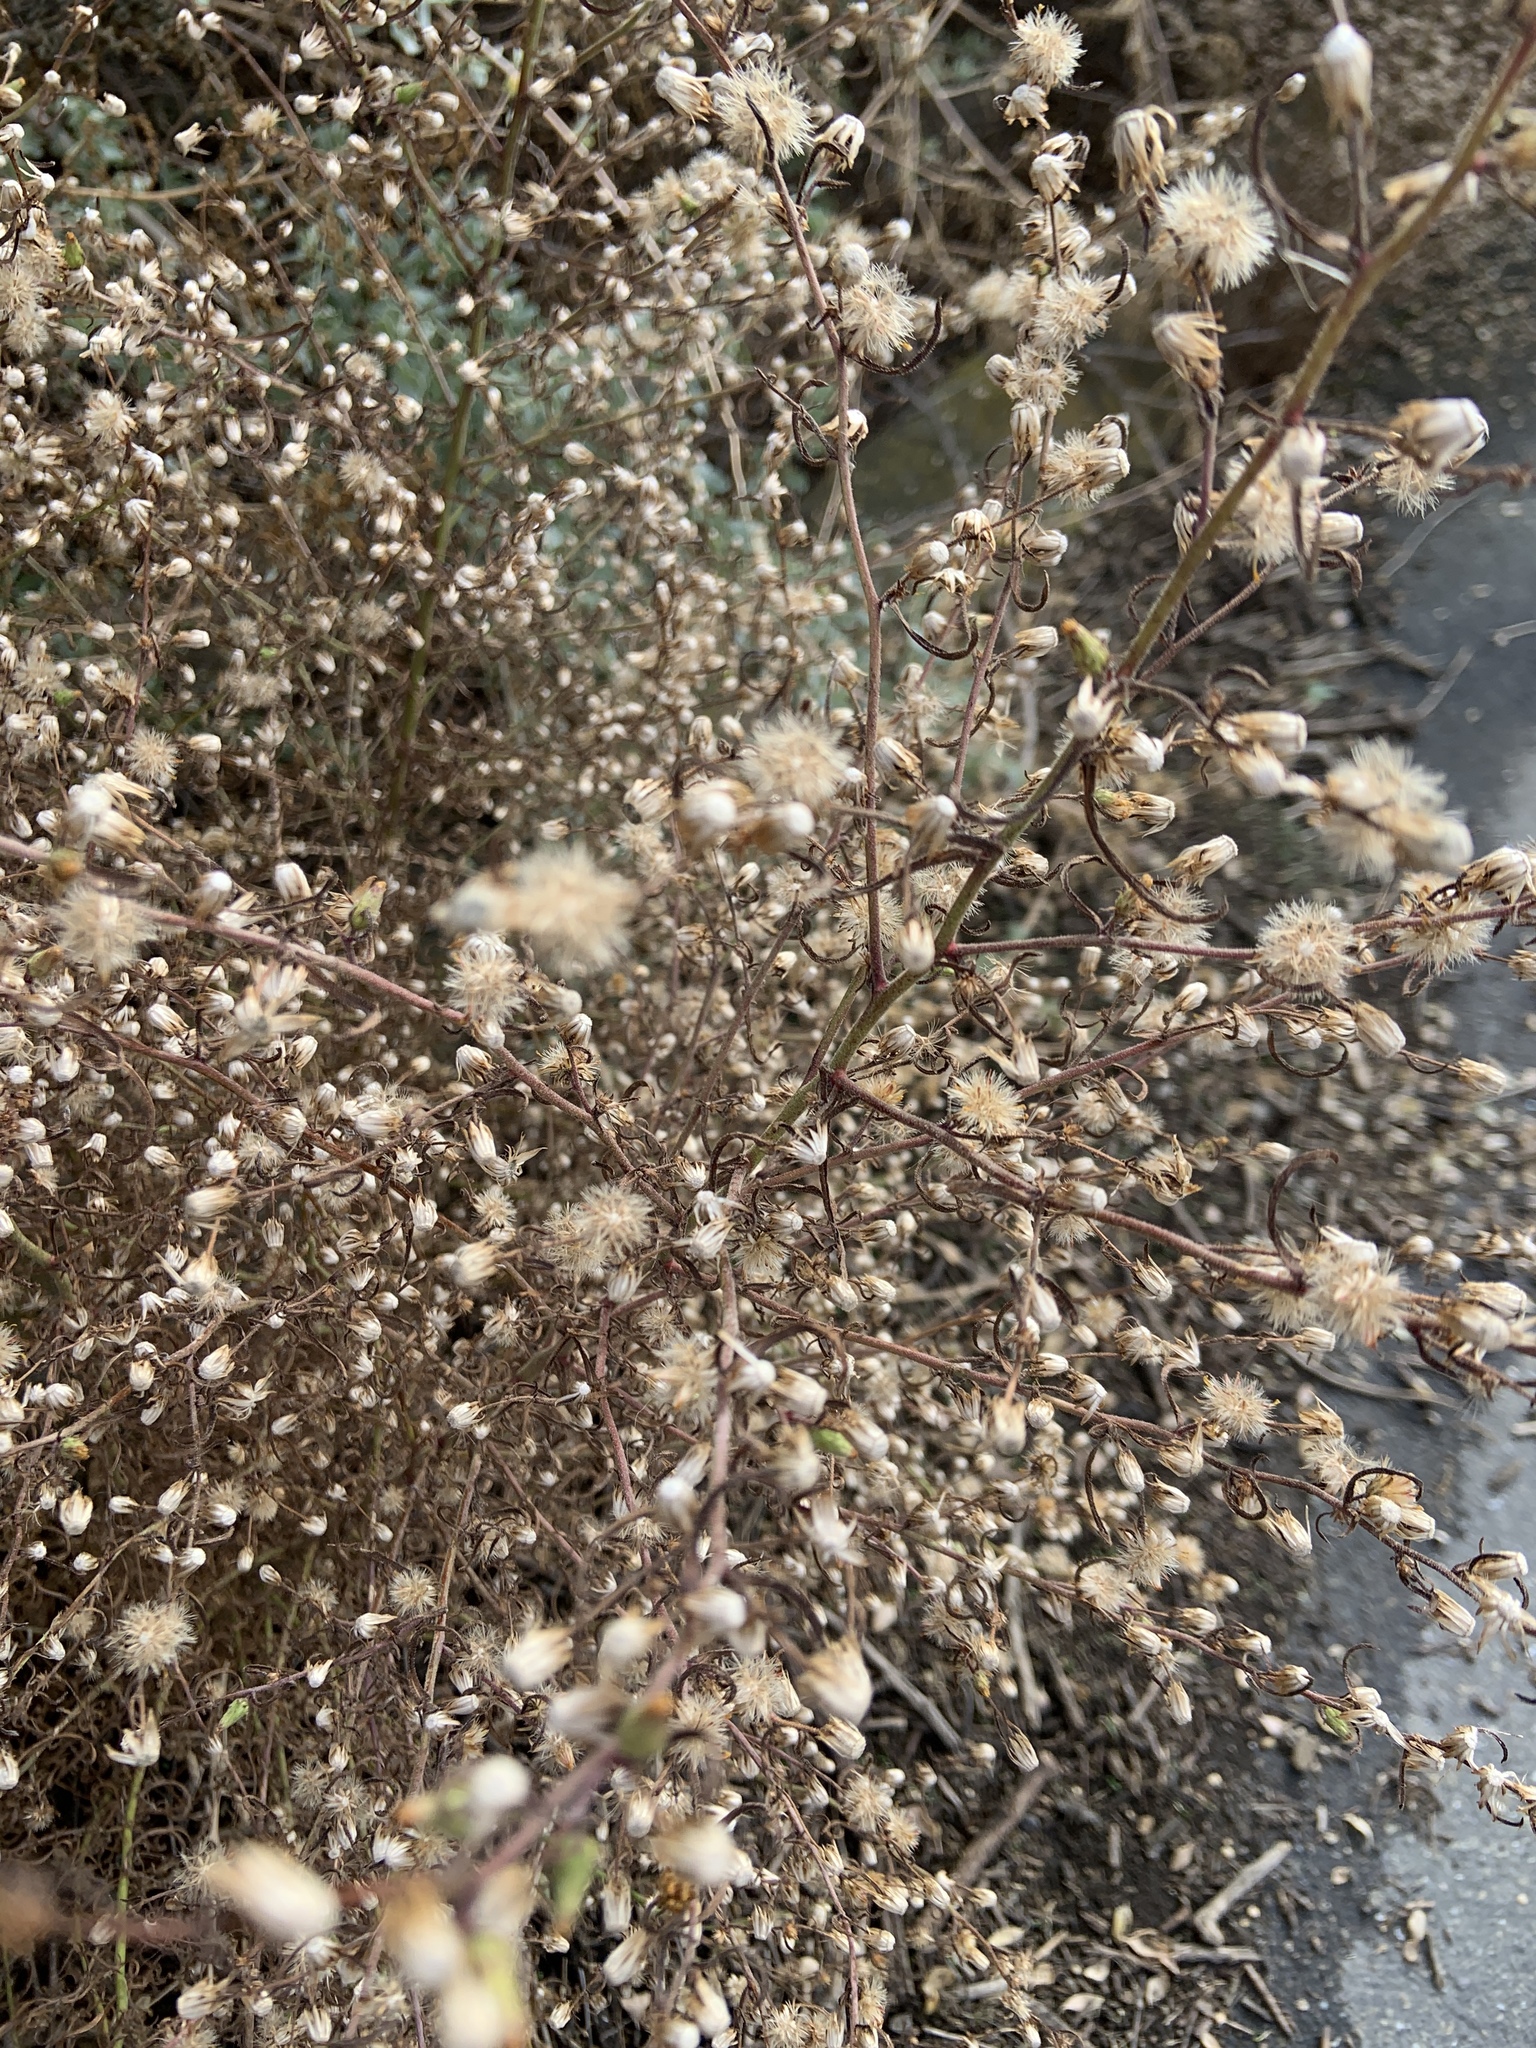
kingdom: Plantae
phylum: Tracheophyta
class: Magnoliopsida
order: Asterales
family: Asteraceae
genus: Dittrichia
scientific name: Dittrichia graveolens
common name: Stinking fleabane
